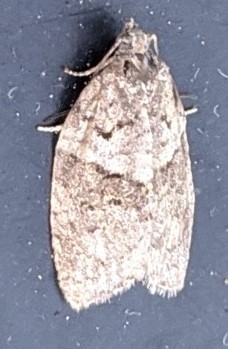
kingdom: Animalia
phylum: Arthropoda
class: Insecta
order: Lepidoptera
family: Tortricidae
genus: Syndemis
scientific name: Syndemis afflictana
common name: Gray leafroller moth
